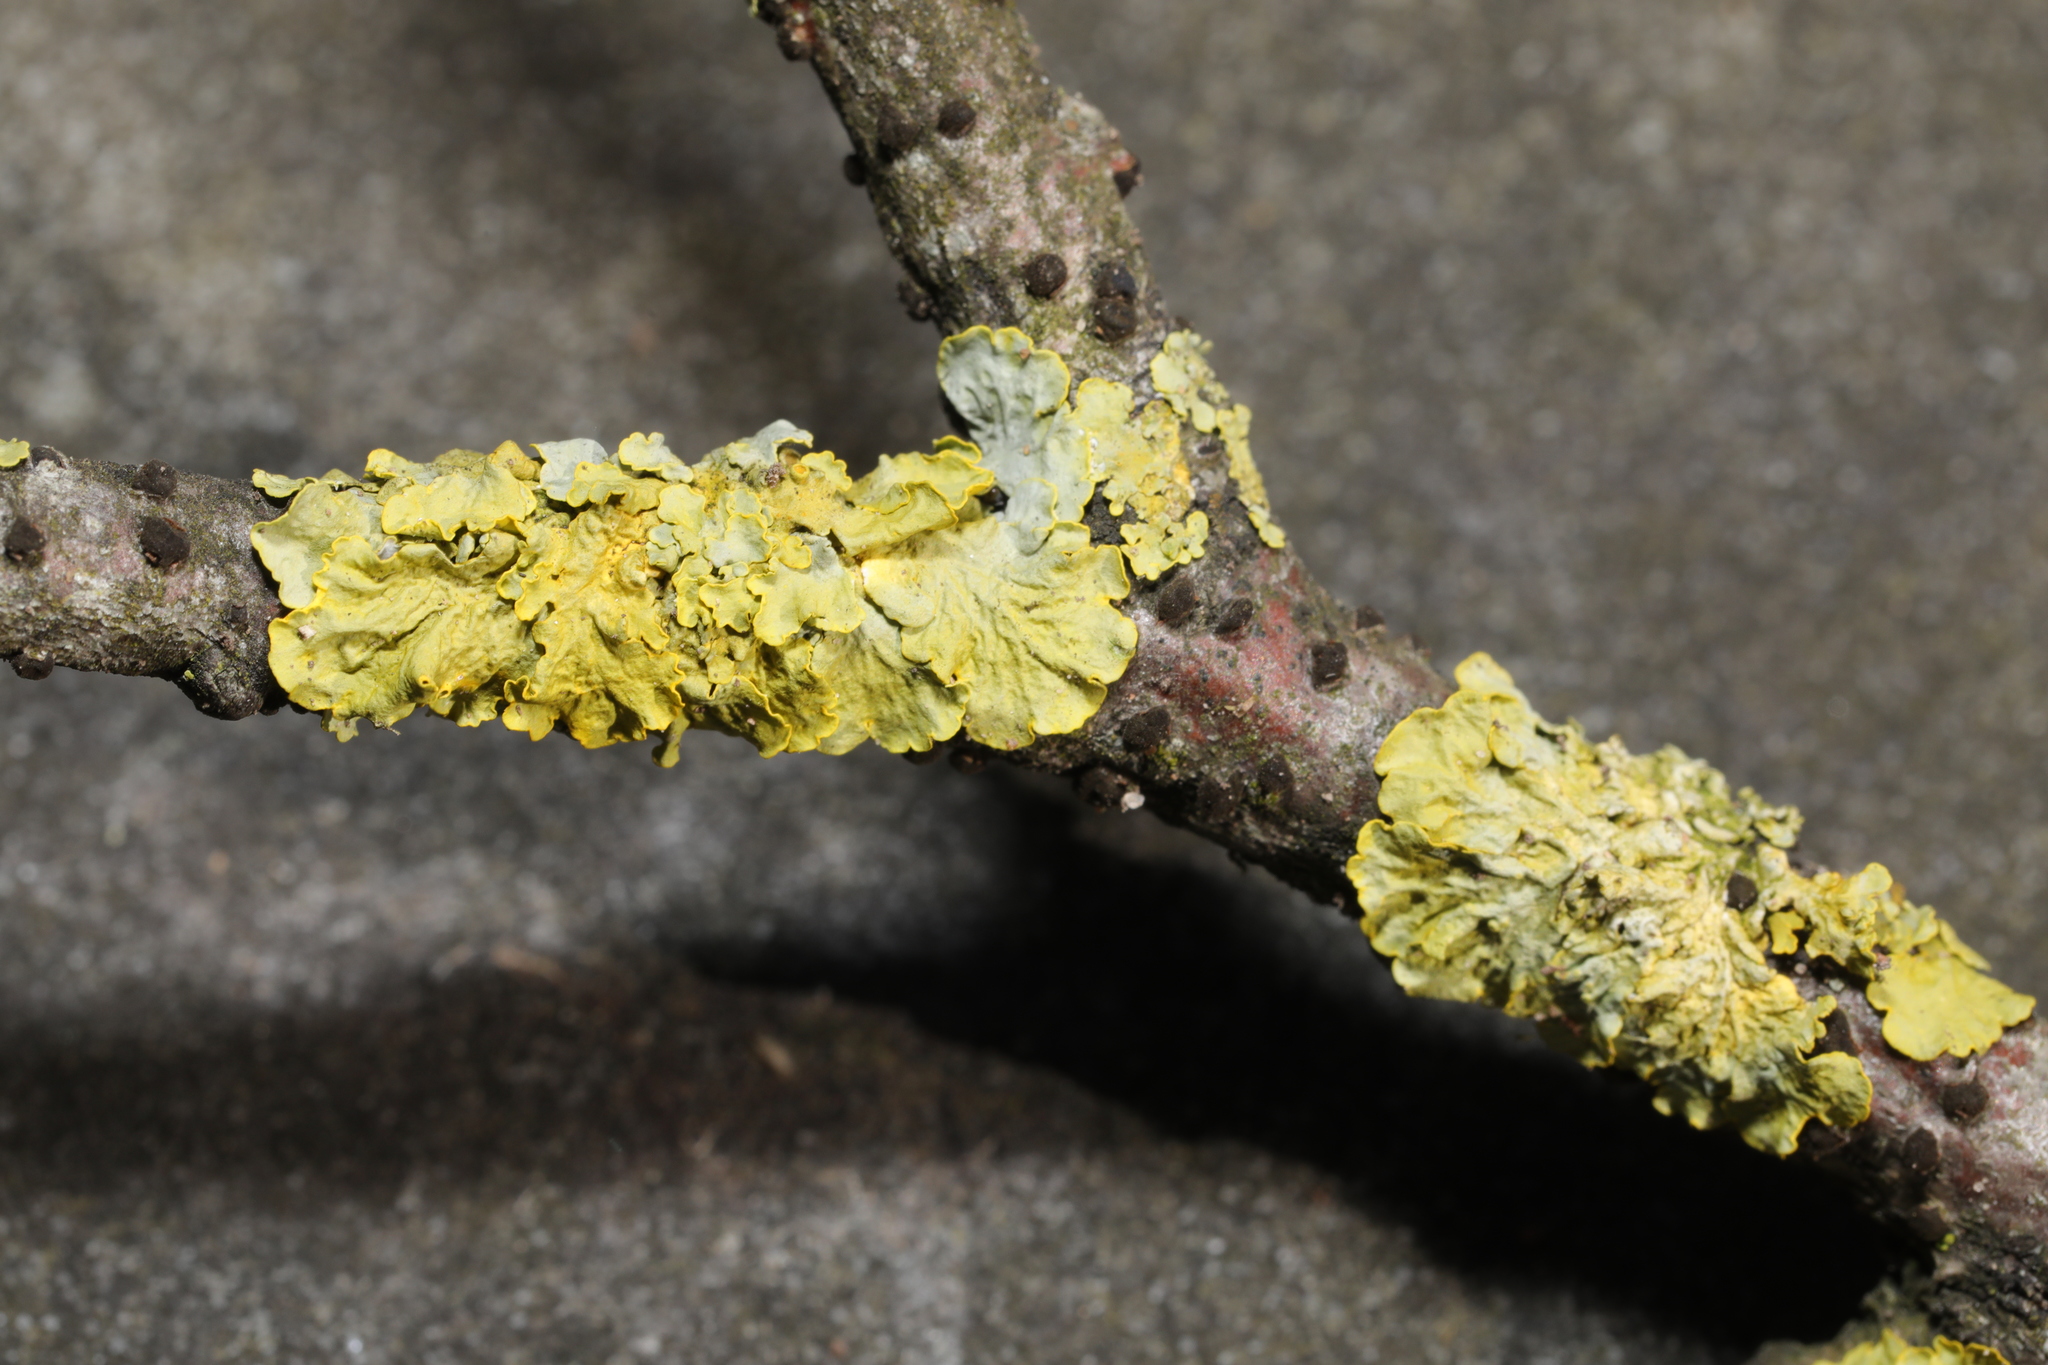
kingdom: Fungi
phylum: Ascomycota
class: Lecanoromycetes
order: Teloschistales
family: Teloschistaceae
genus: Xanthoria
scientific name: Xanthoria parietina
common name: Common orange lichen
